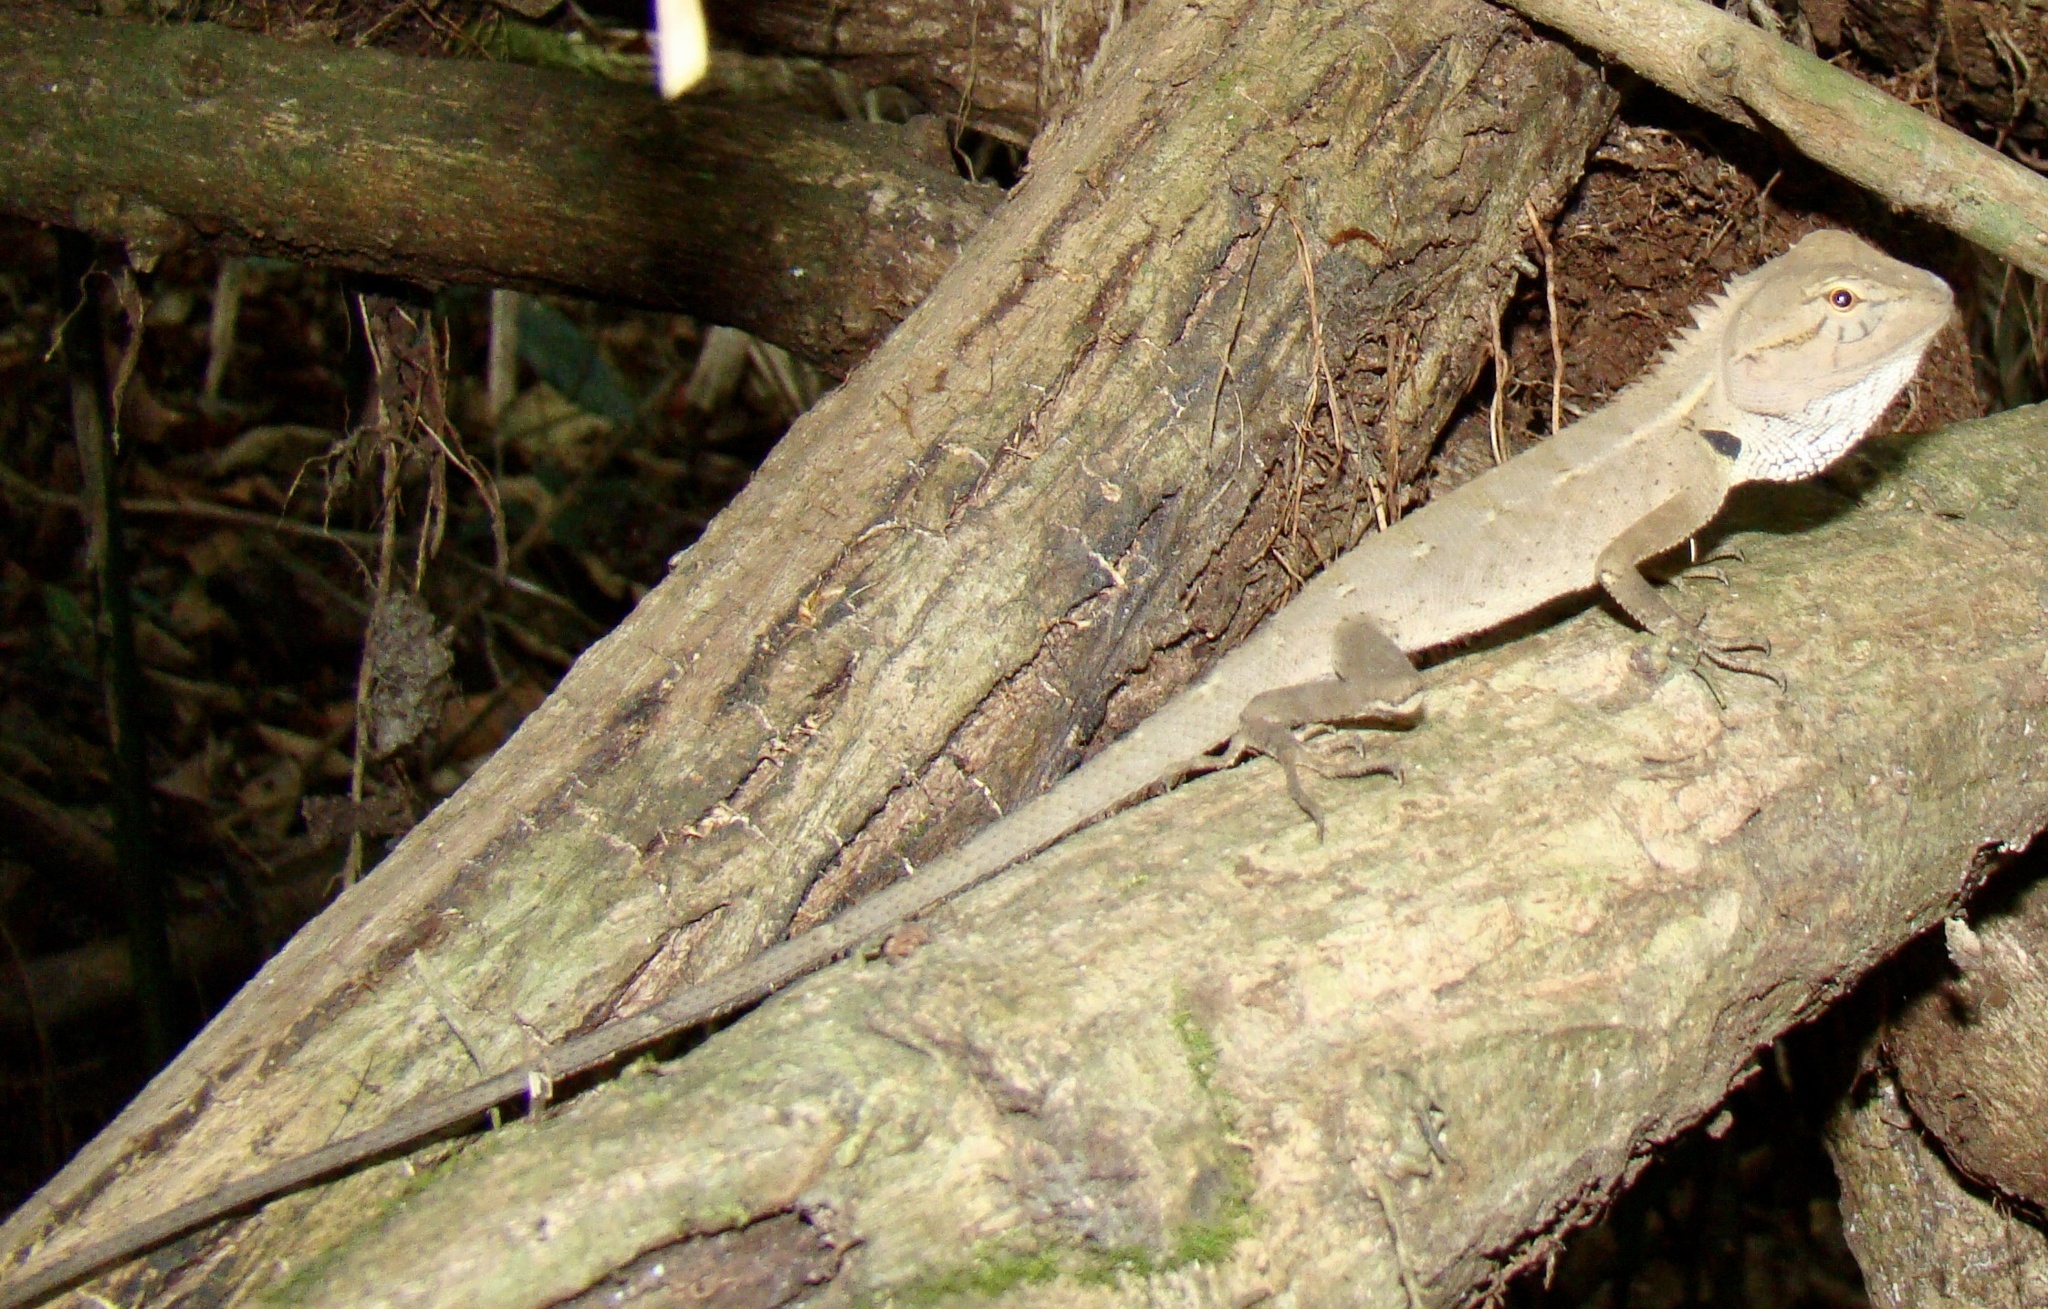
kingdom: Animalia
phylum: Chordata
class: Squamata
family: Agamidae
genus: Calotes
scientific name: Calotes versicolor
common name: Oriental garden lizard
